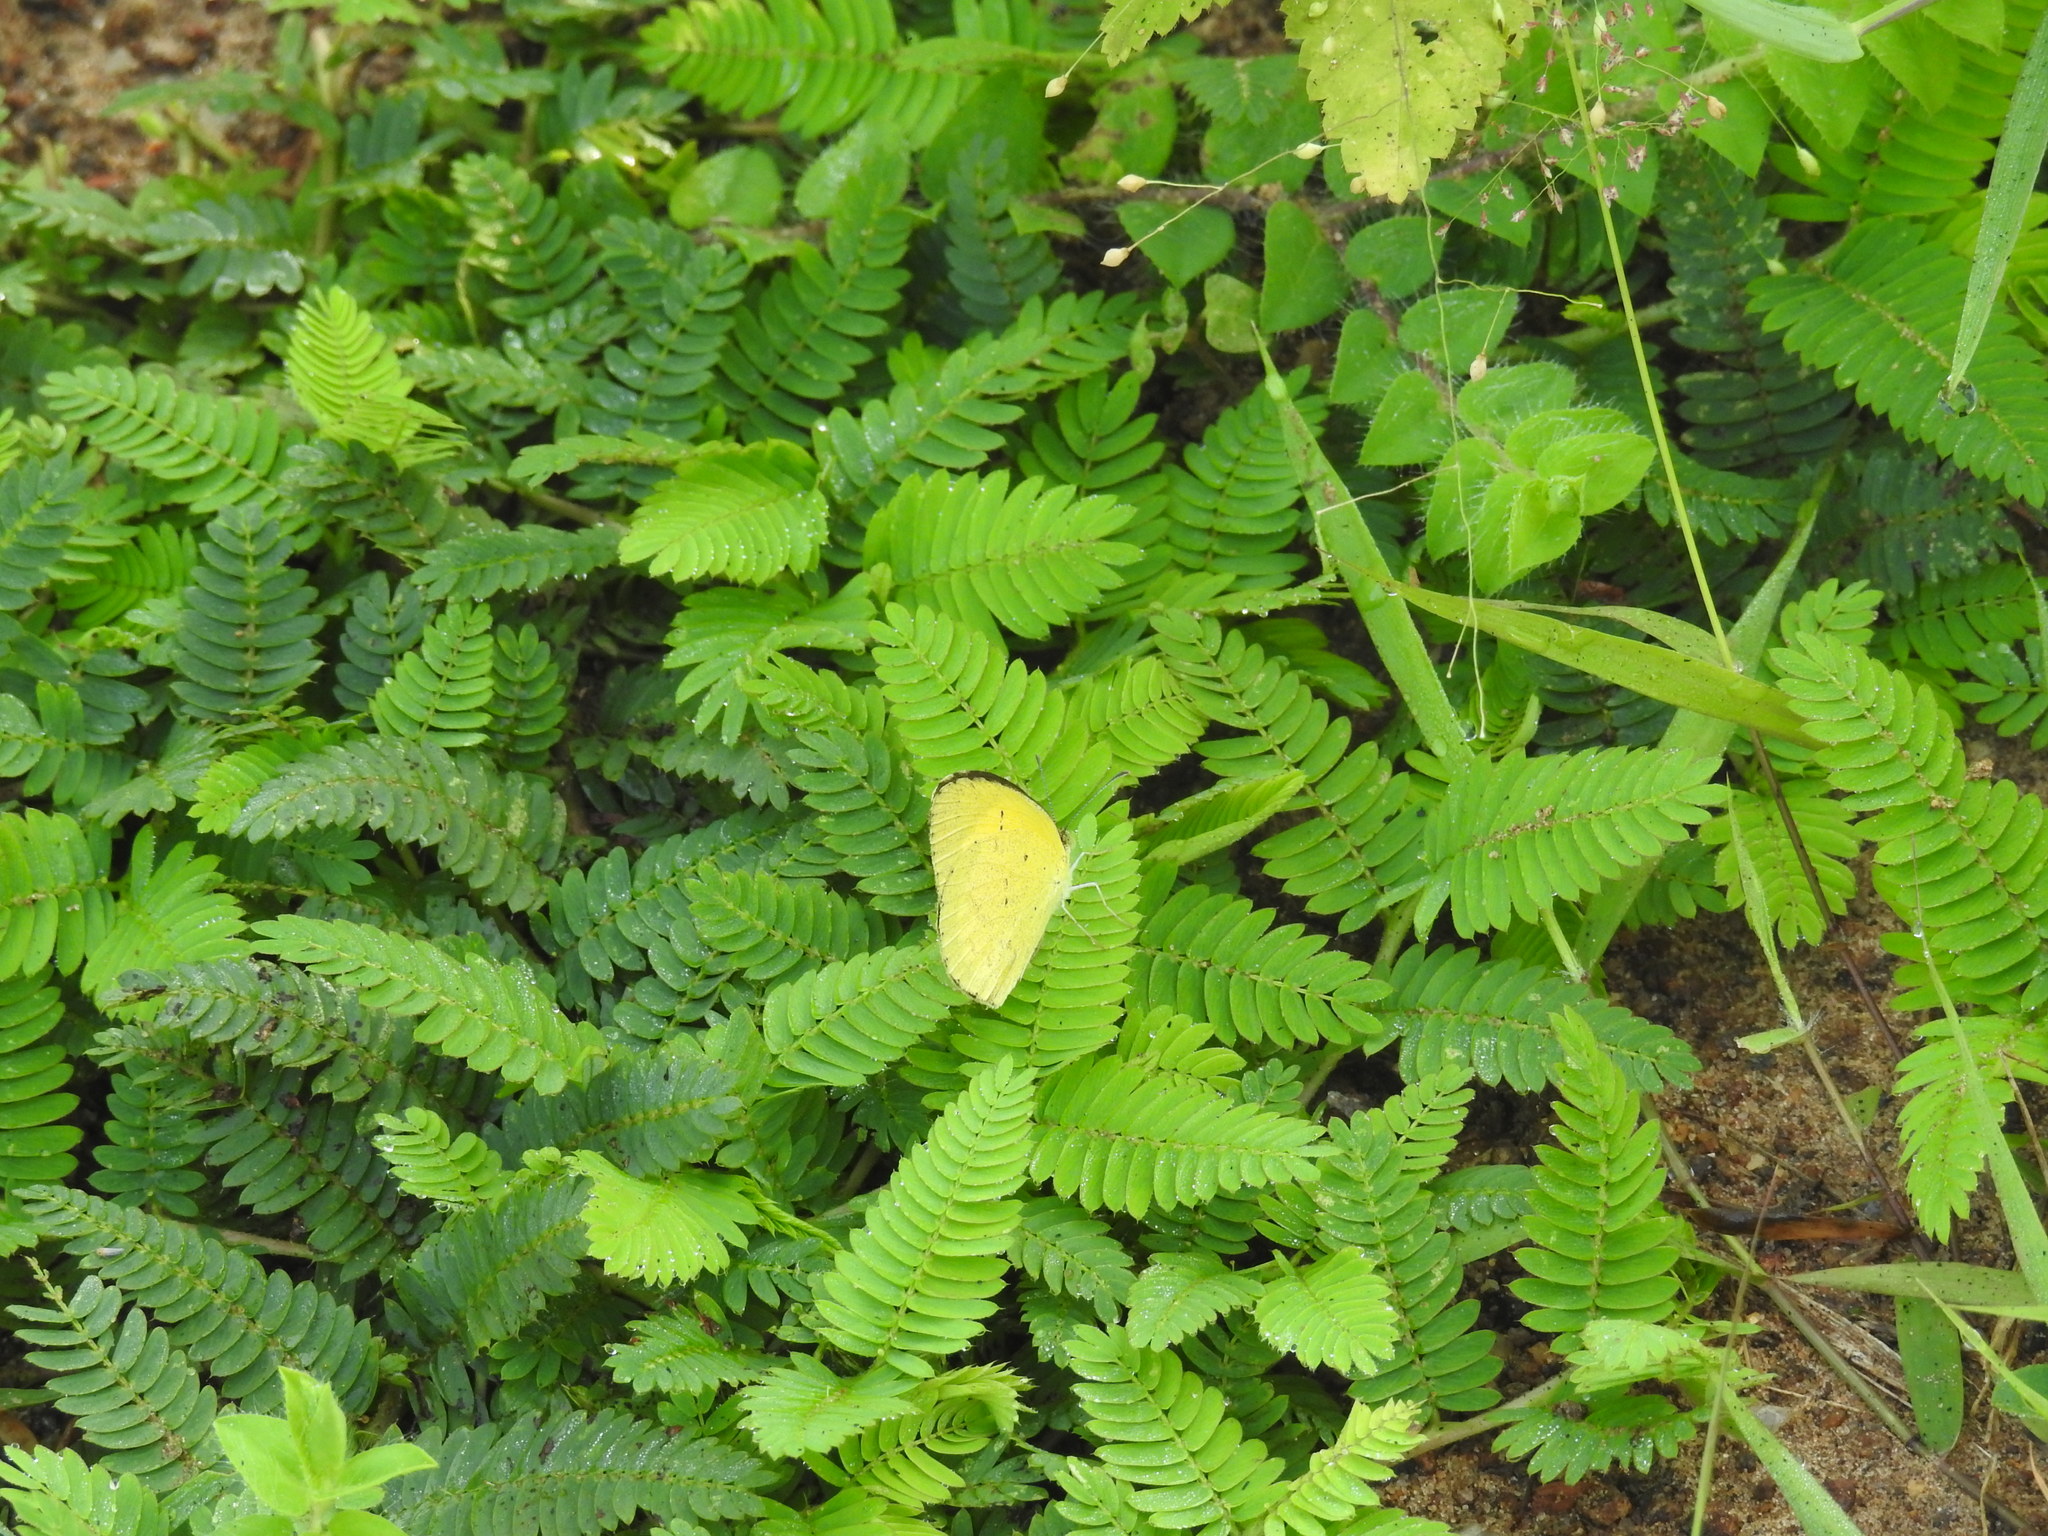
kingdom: Animalia
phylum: Arthropoda
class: Insecta
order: Lepidoptera
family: Pieridae
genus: Eurema
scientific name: Eurema hecabe
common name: Pale grass yellow
